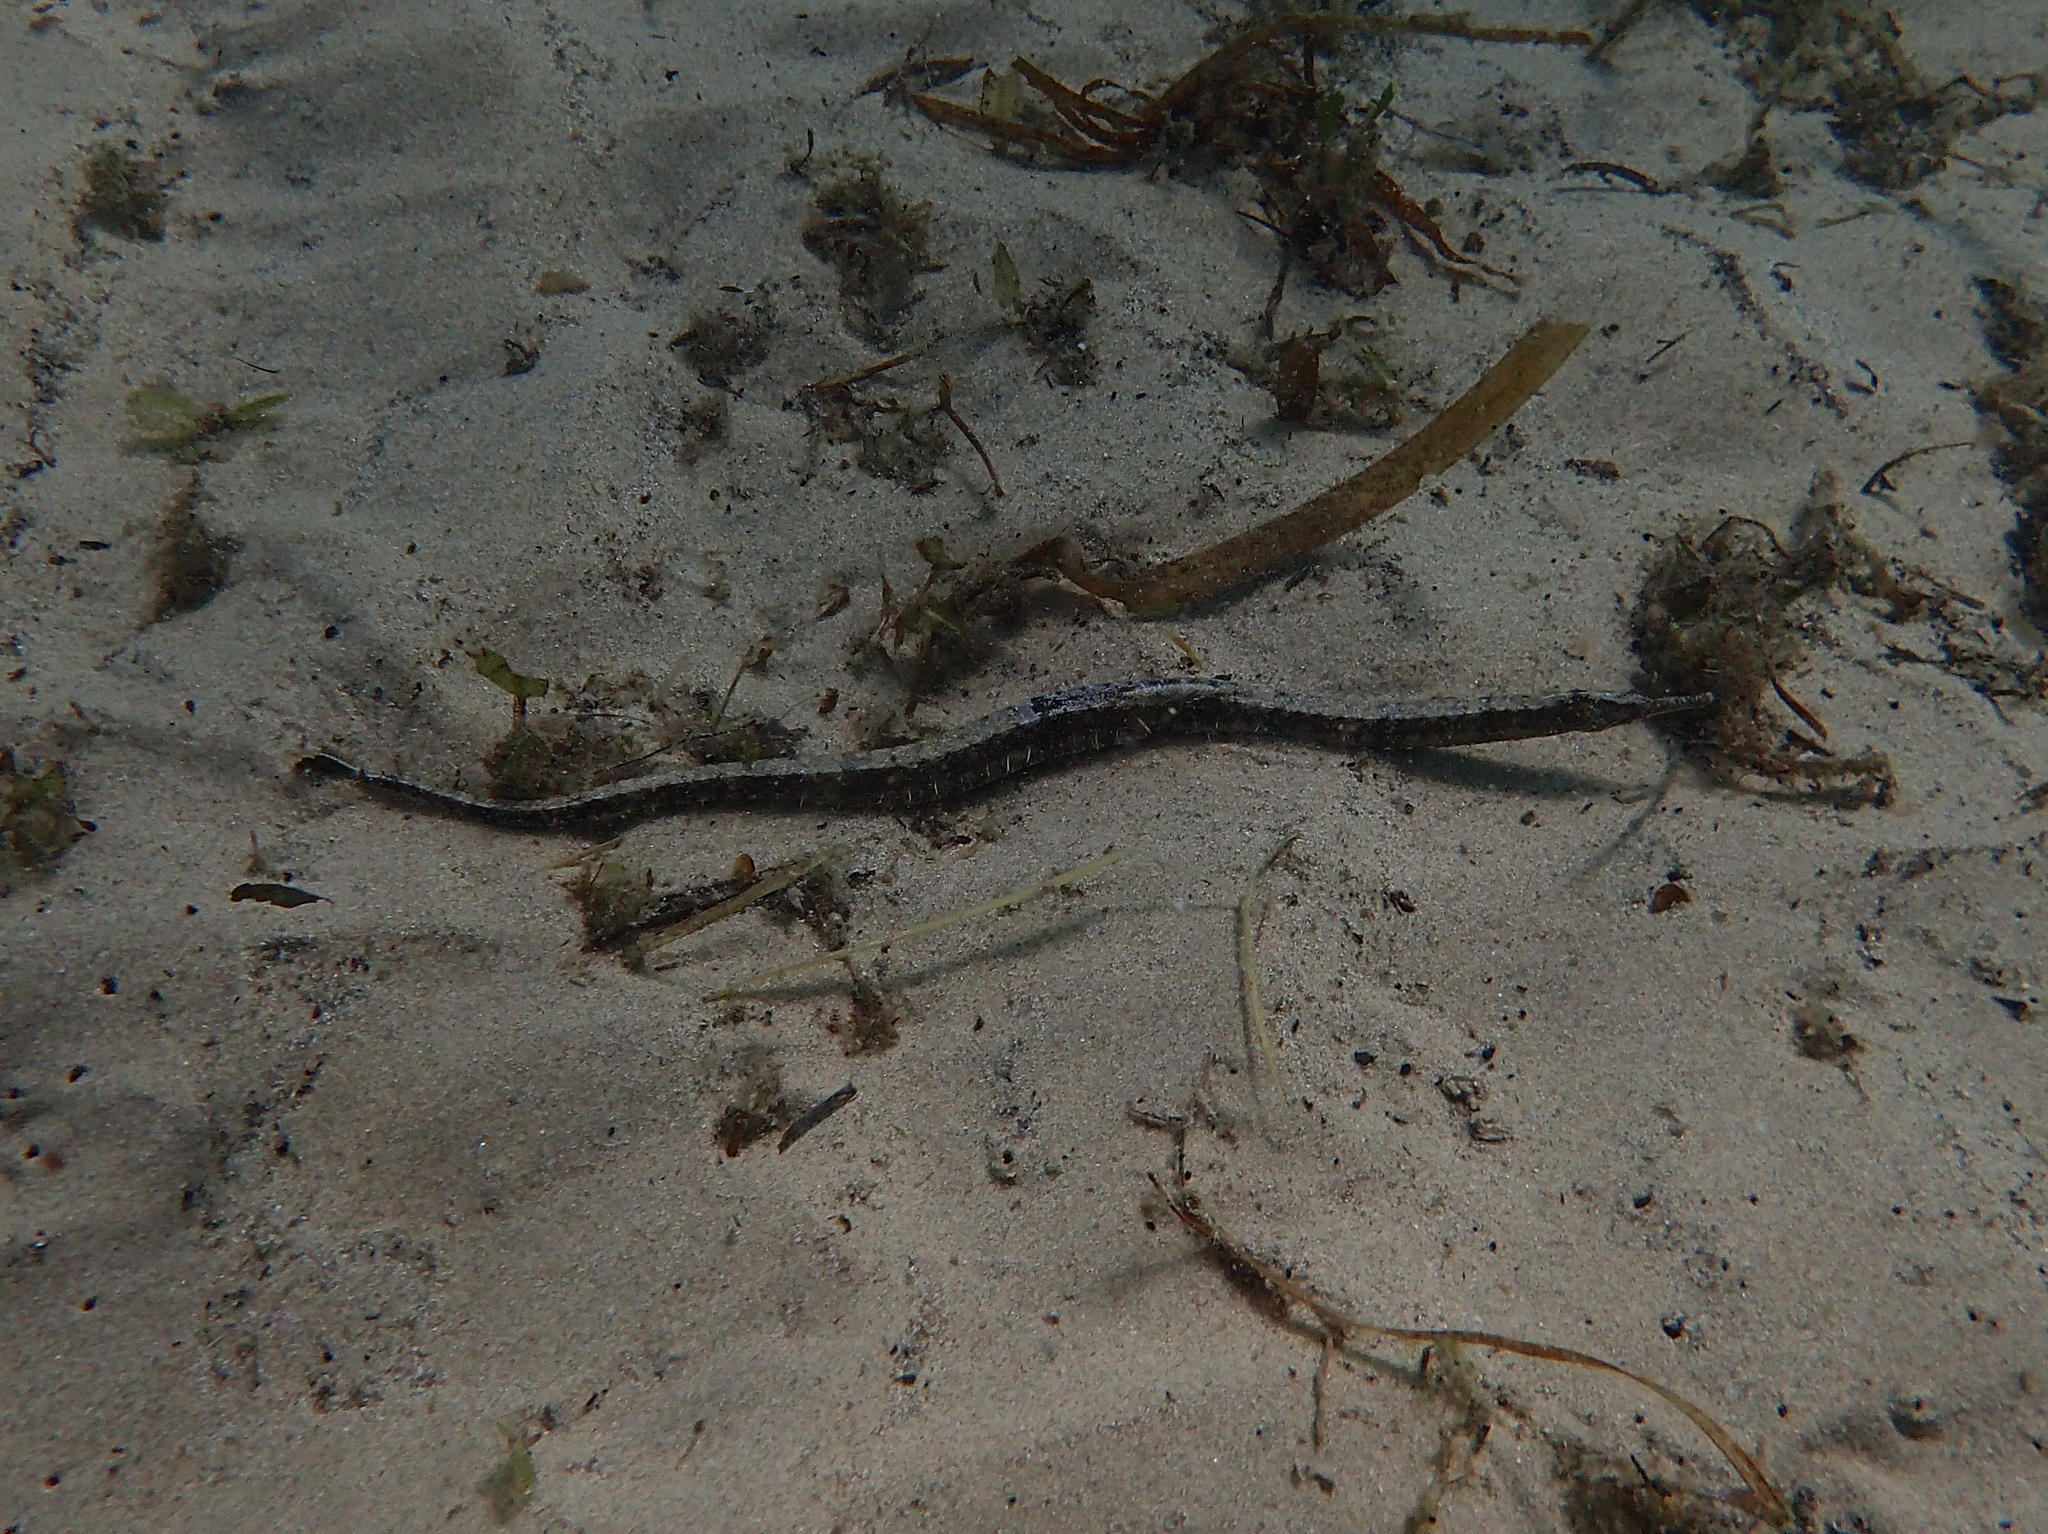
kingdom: Animalia
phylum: Chordata
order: Syngnathiformes
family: Syngnathidae
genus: Filicampus
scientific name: Filicampus tigris
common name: Tentacled pipefish
